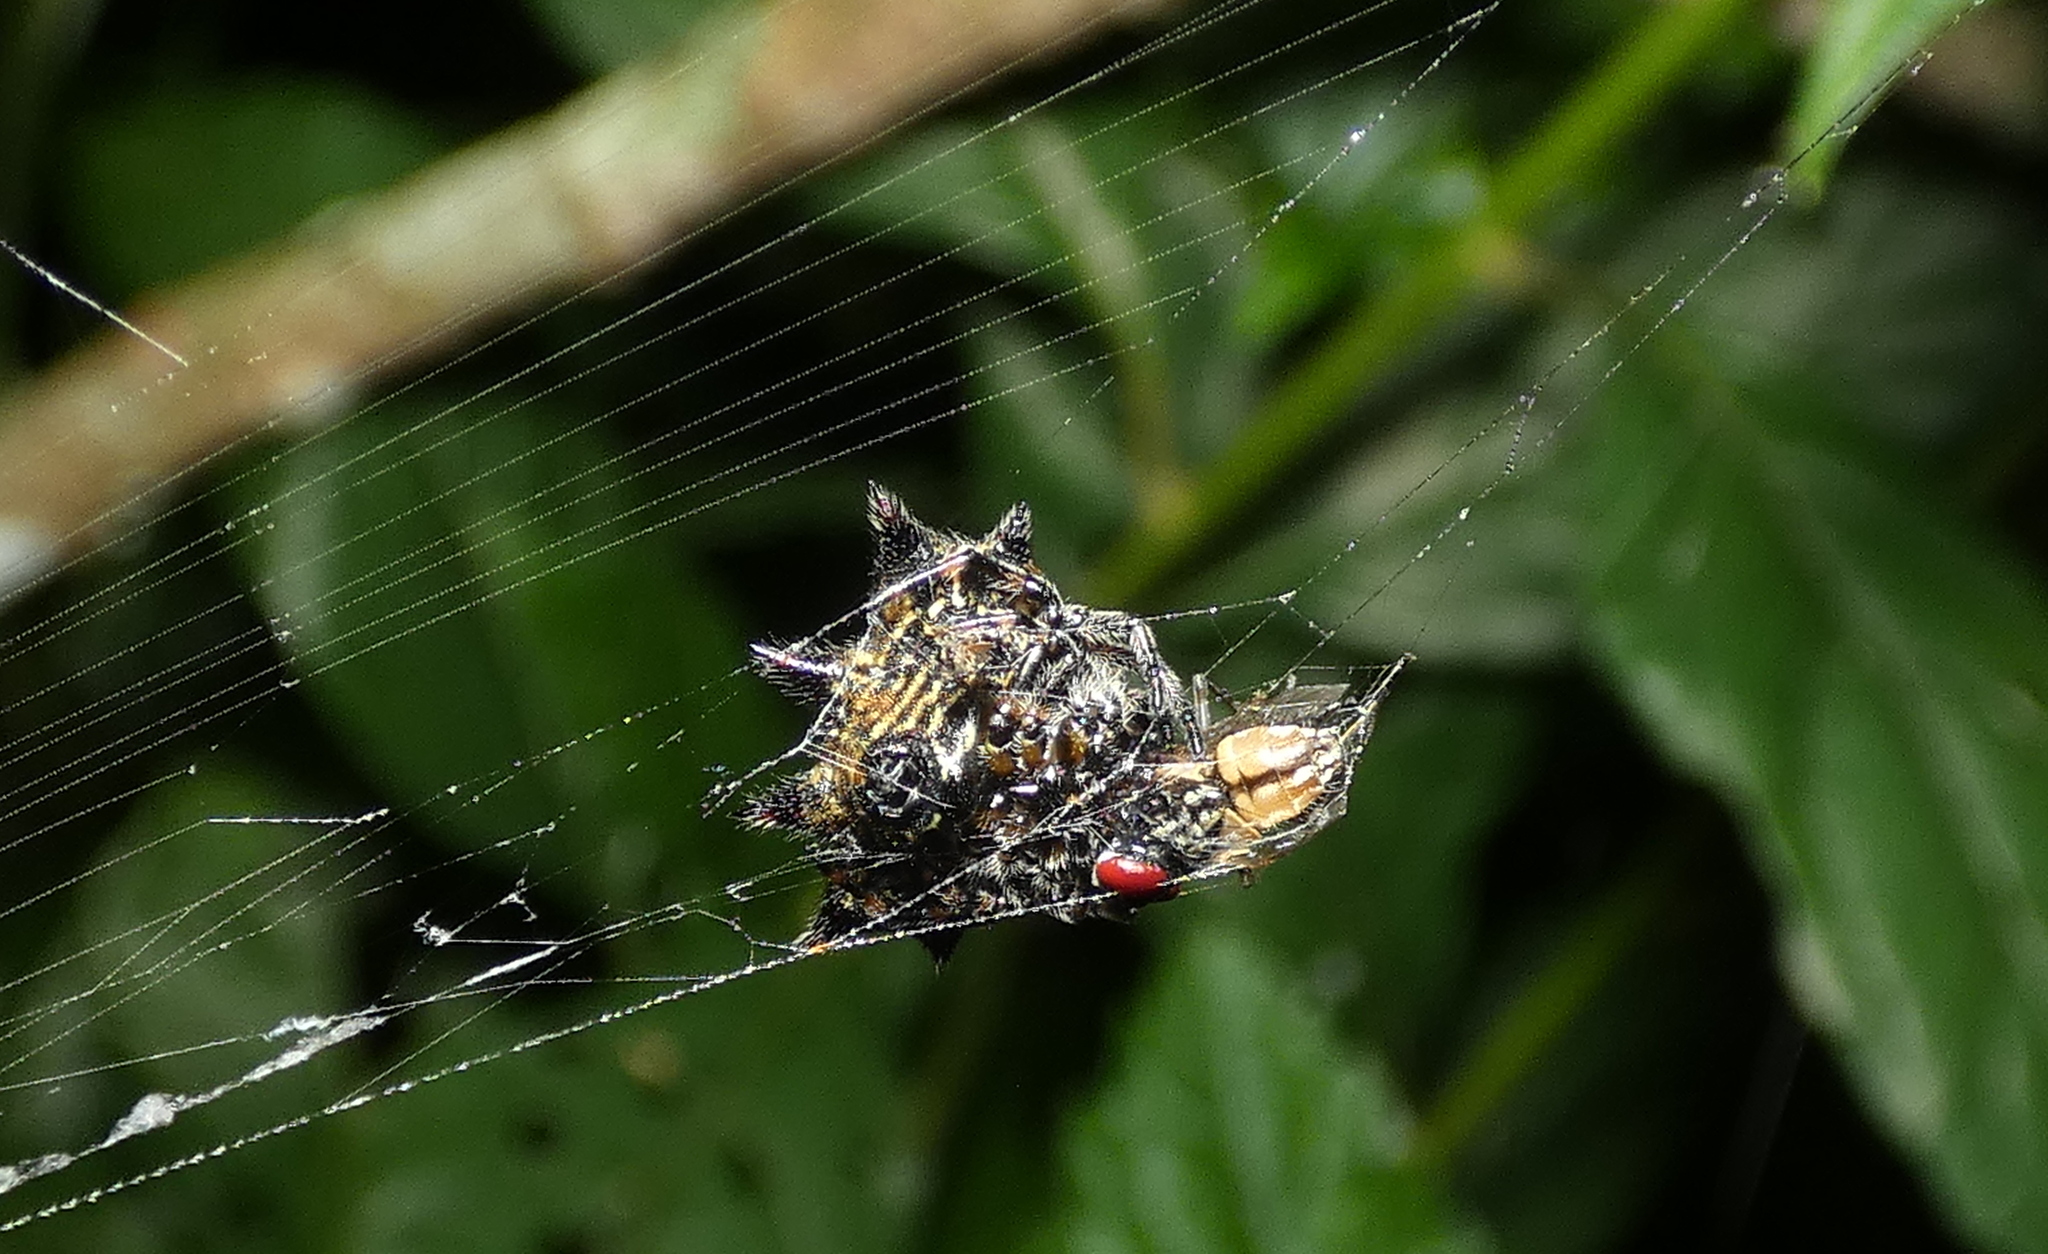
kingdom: Animalia
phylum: Arthropoda
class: Arachnida
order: Araneae
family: Araneidae
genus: Gasteracantha
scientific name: Gasteracantha cancriformis
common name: Orb weavers
